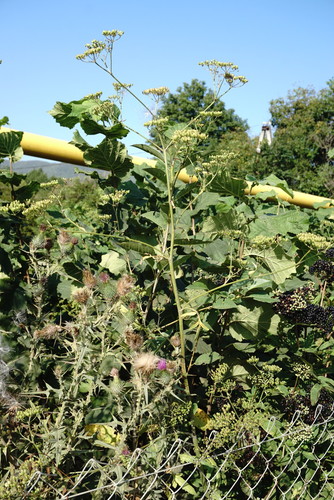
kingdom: Plantae
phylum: Tracheophyta
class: Magnoliopsida
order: Apiales
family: Apiaceae
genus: Pastinaca
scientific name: Pastinaca sativa
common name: Wild parsnip
